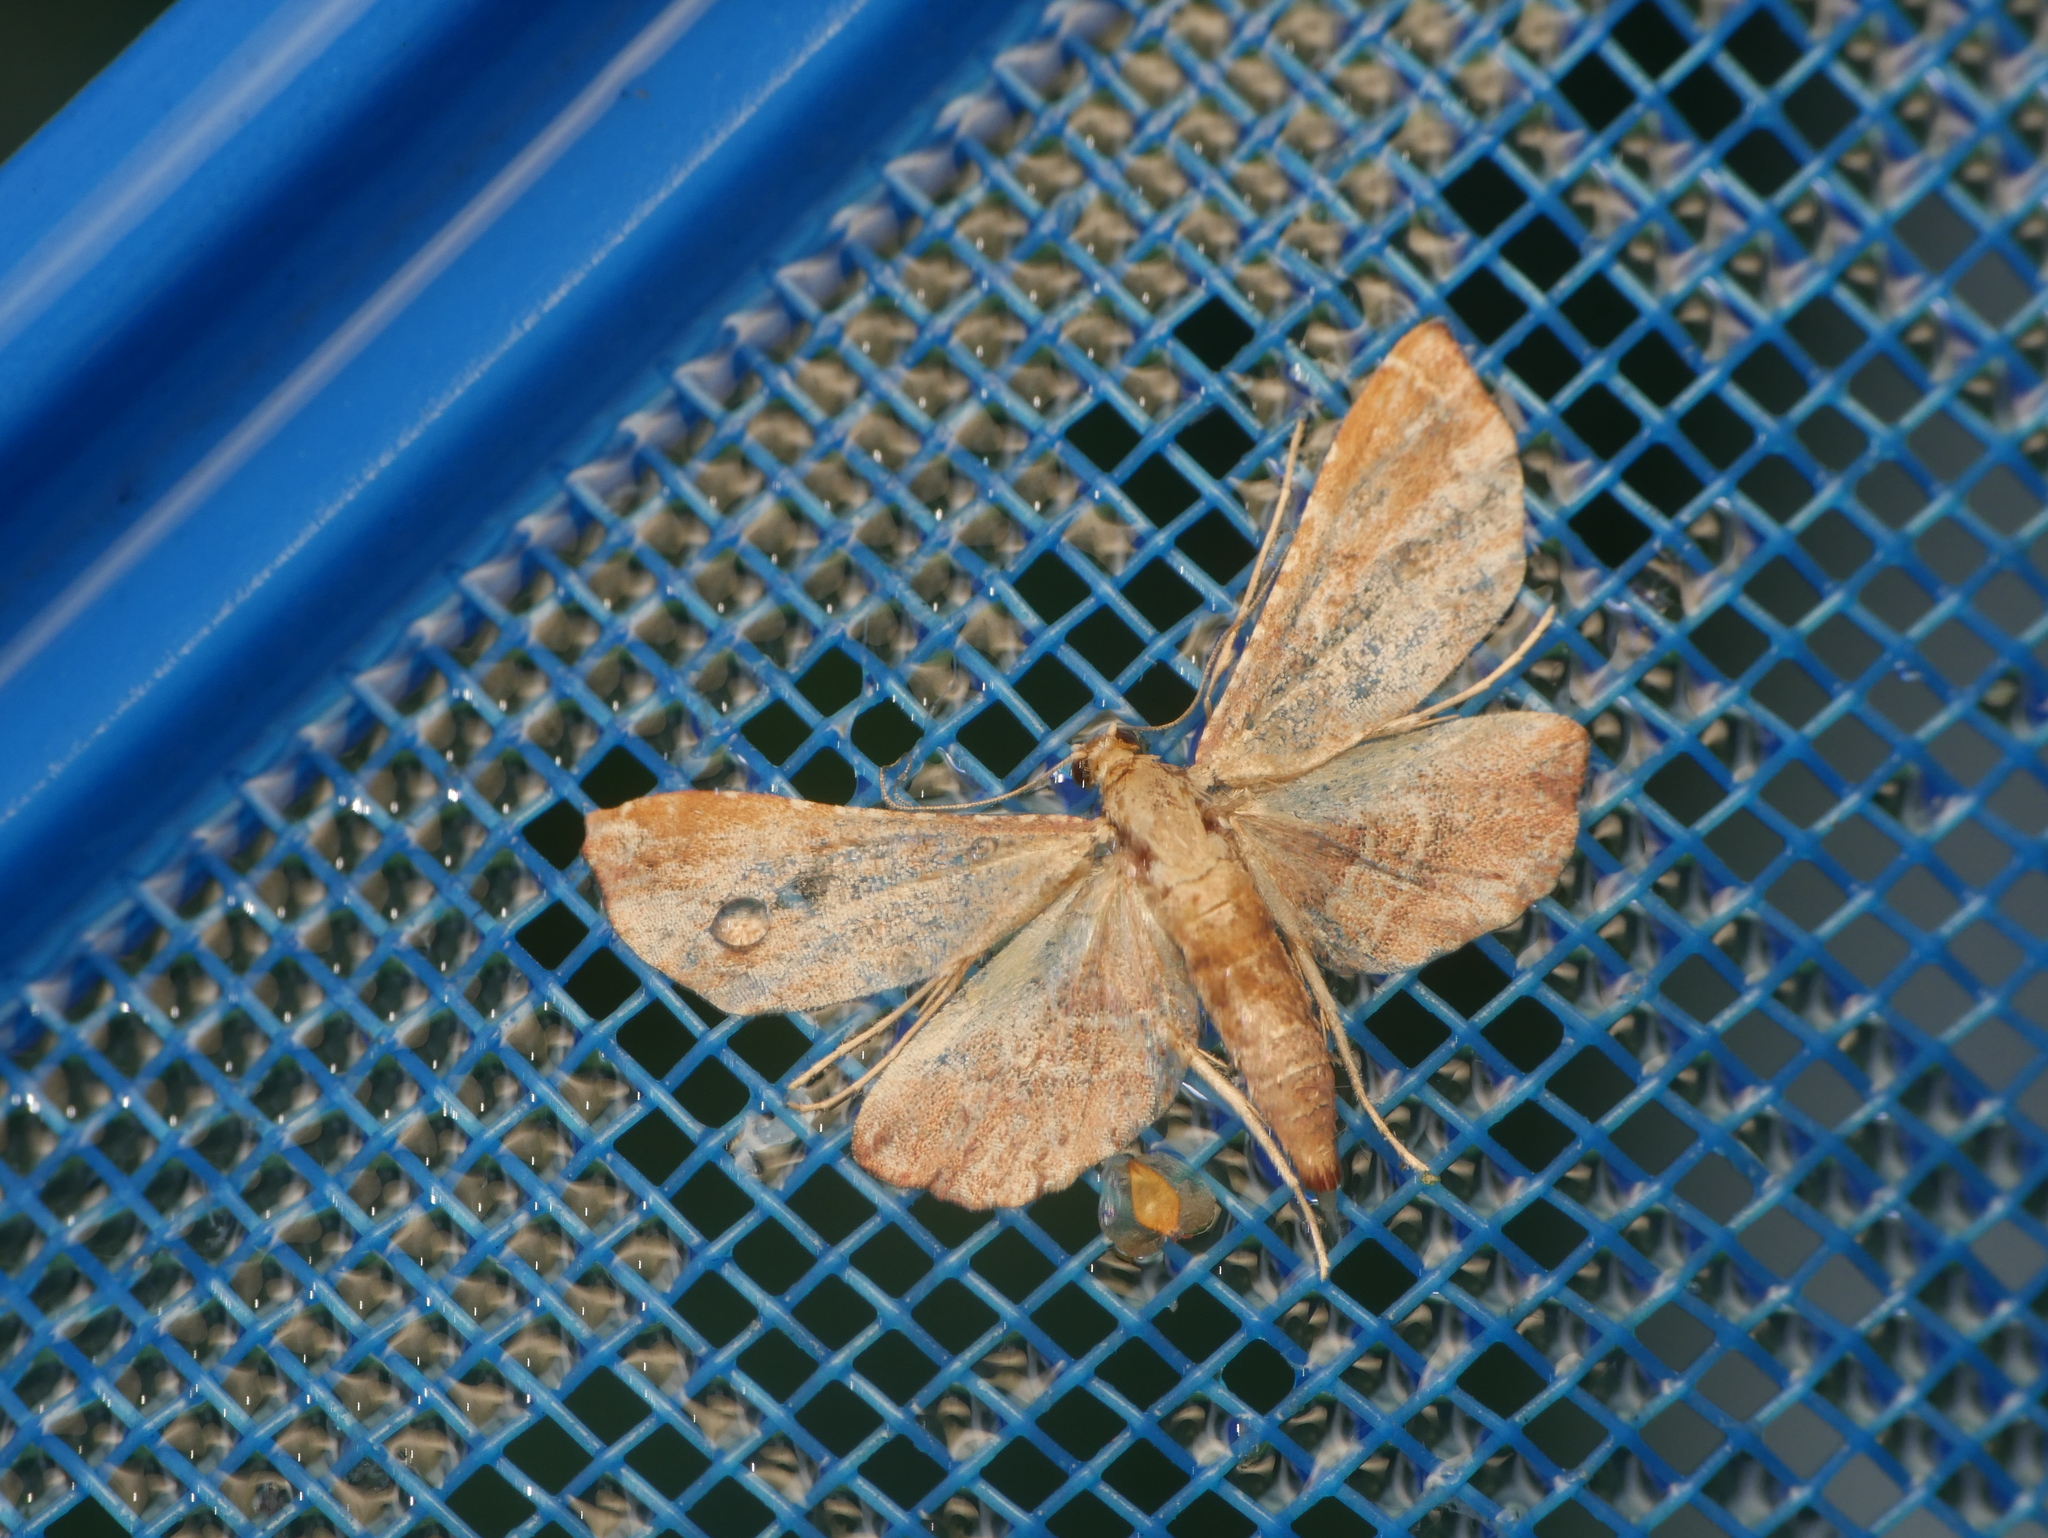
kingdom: Animalia
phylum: Arthropoda
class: Insecta
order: Lepidoptera
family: Pyralidae
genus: Endotricha
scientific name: Endotricha flammealis
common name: Rosy tabby
